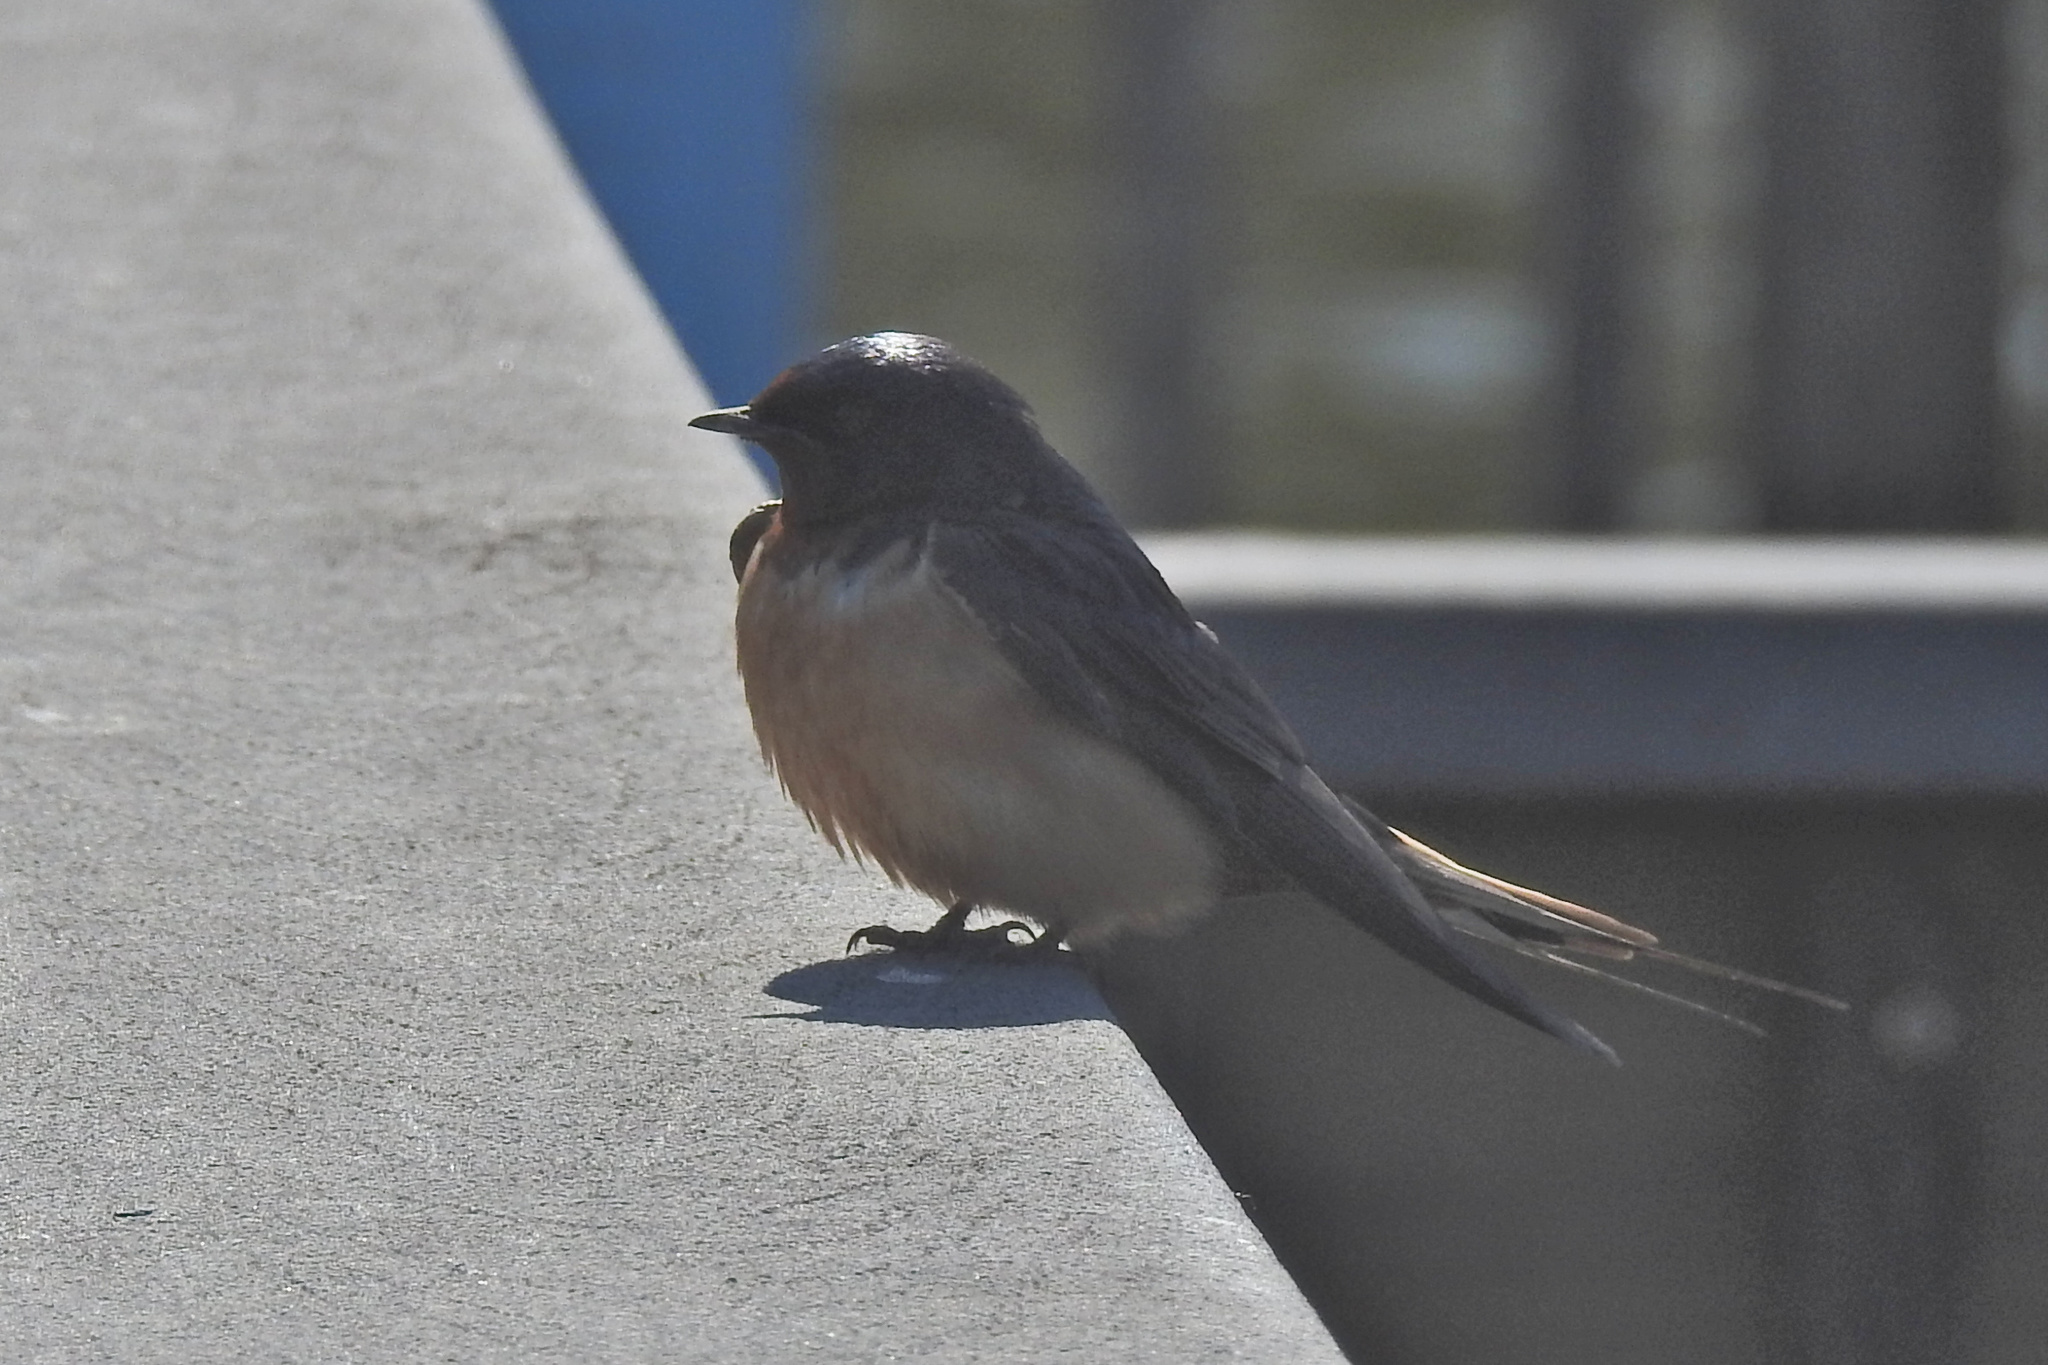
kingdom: Animalia
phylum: Chordata
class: Aves
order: Passeriformes
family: Hirundinidae
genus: Hirundo
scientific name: Hirundo rustica
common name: Barn swallow
